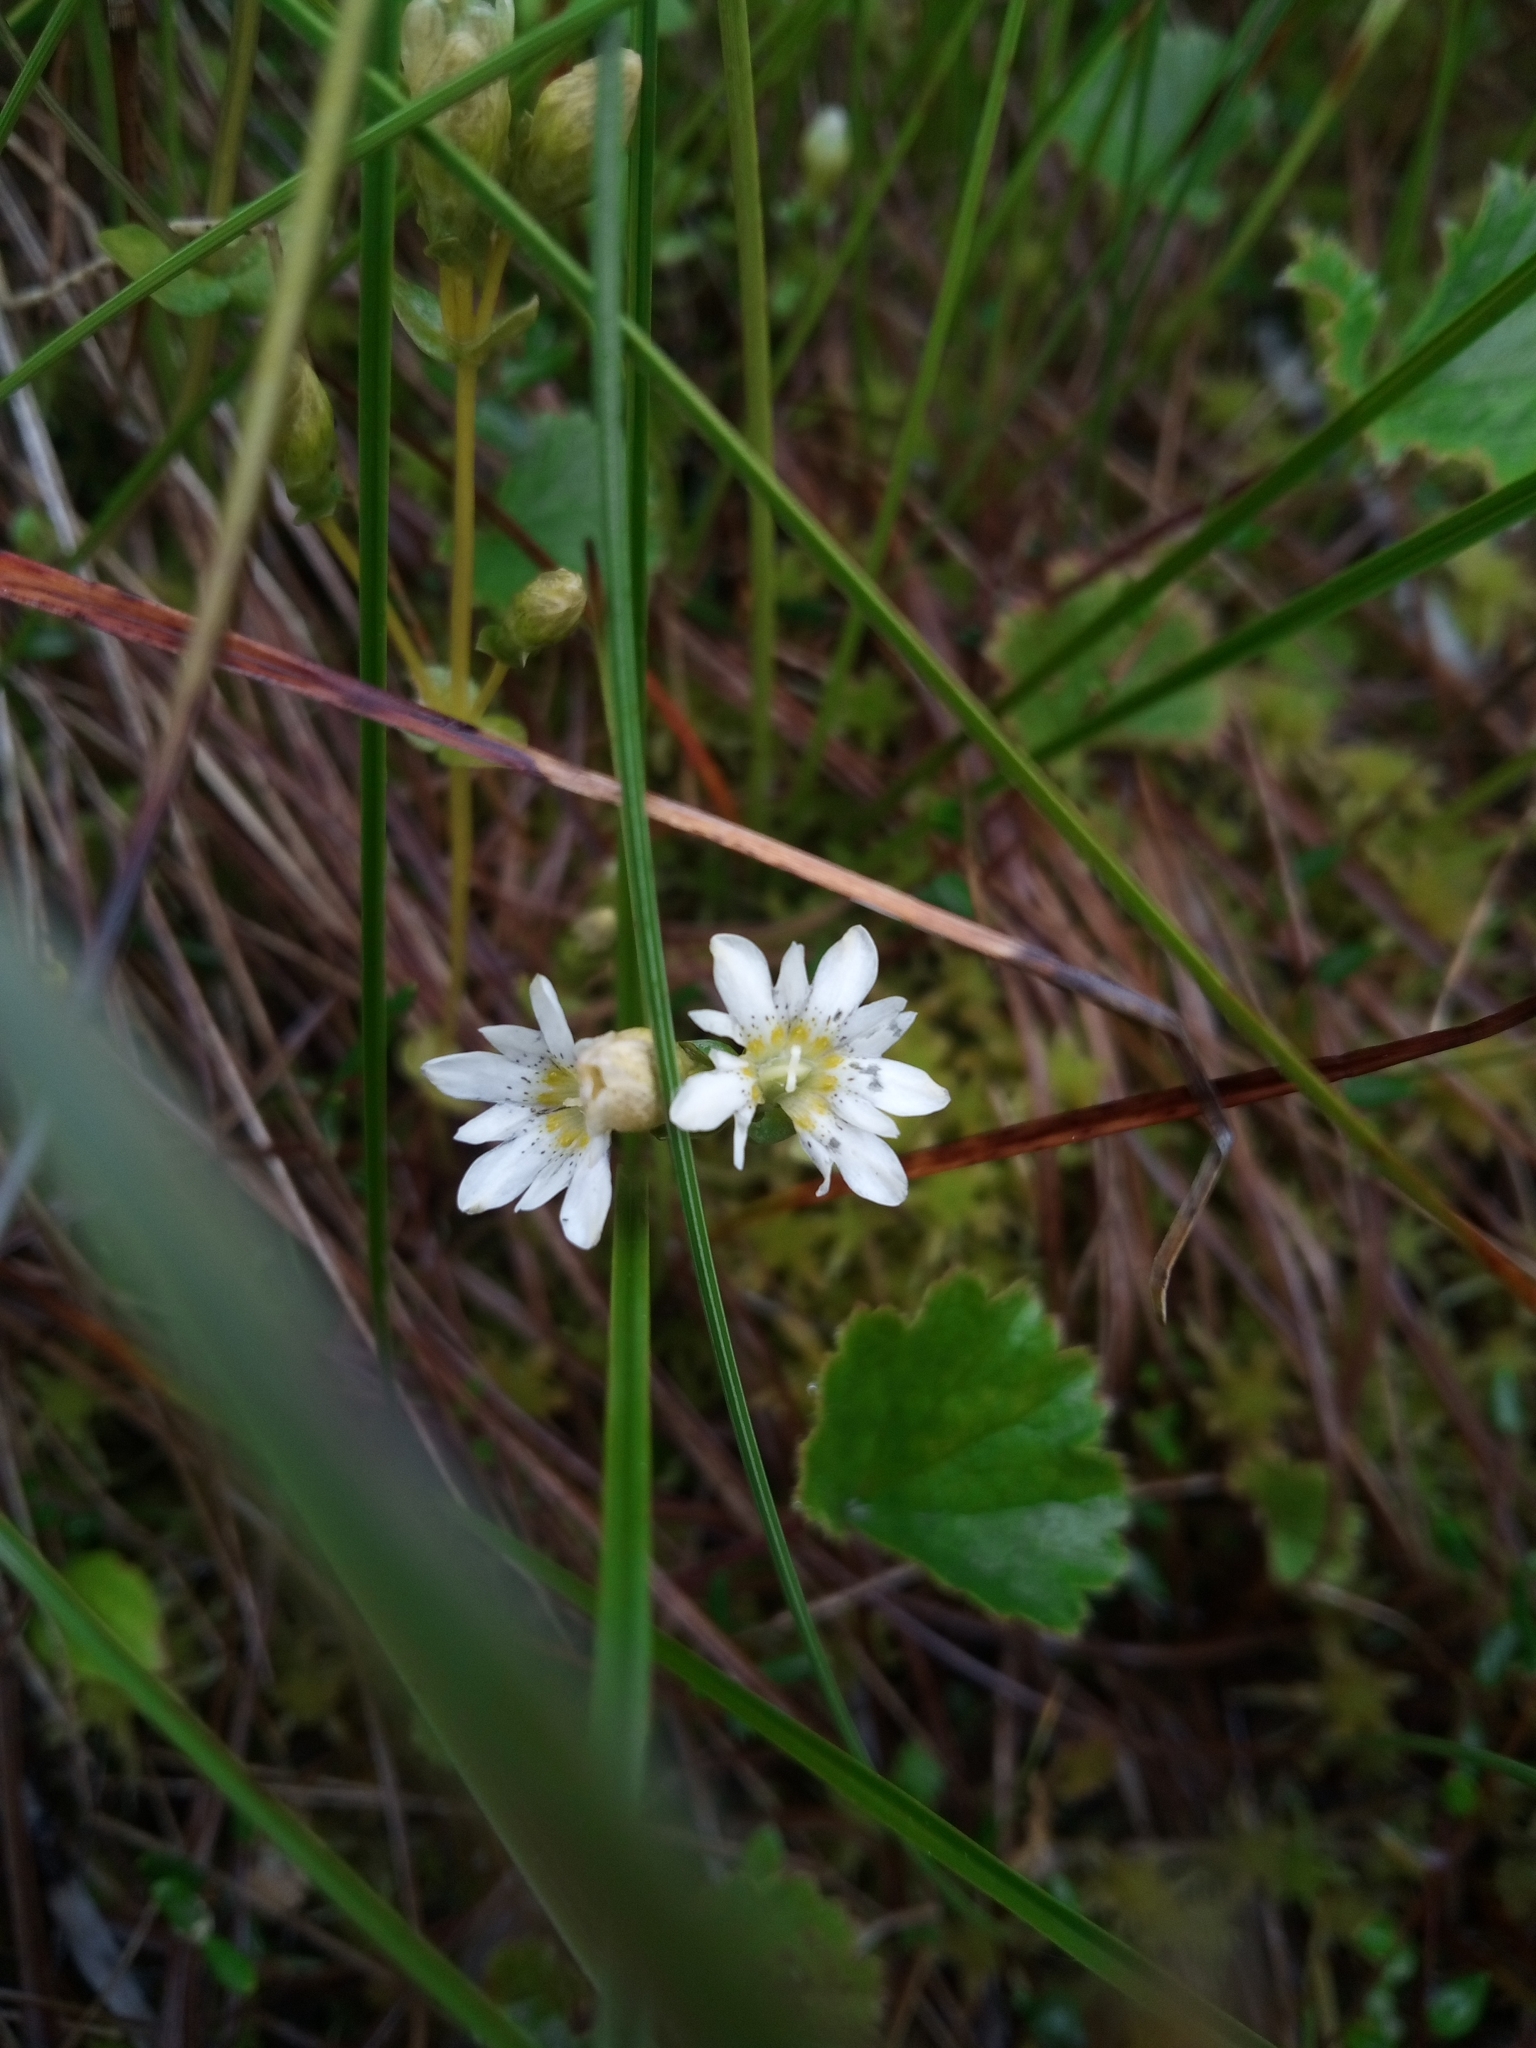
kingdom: Plantae
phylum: Tracheophyta
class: Magnoliopsida
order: Gentianales
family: Gentianaceae
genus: Gentiana
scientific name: Gentiana douglasiana
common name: Swamp gentian
